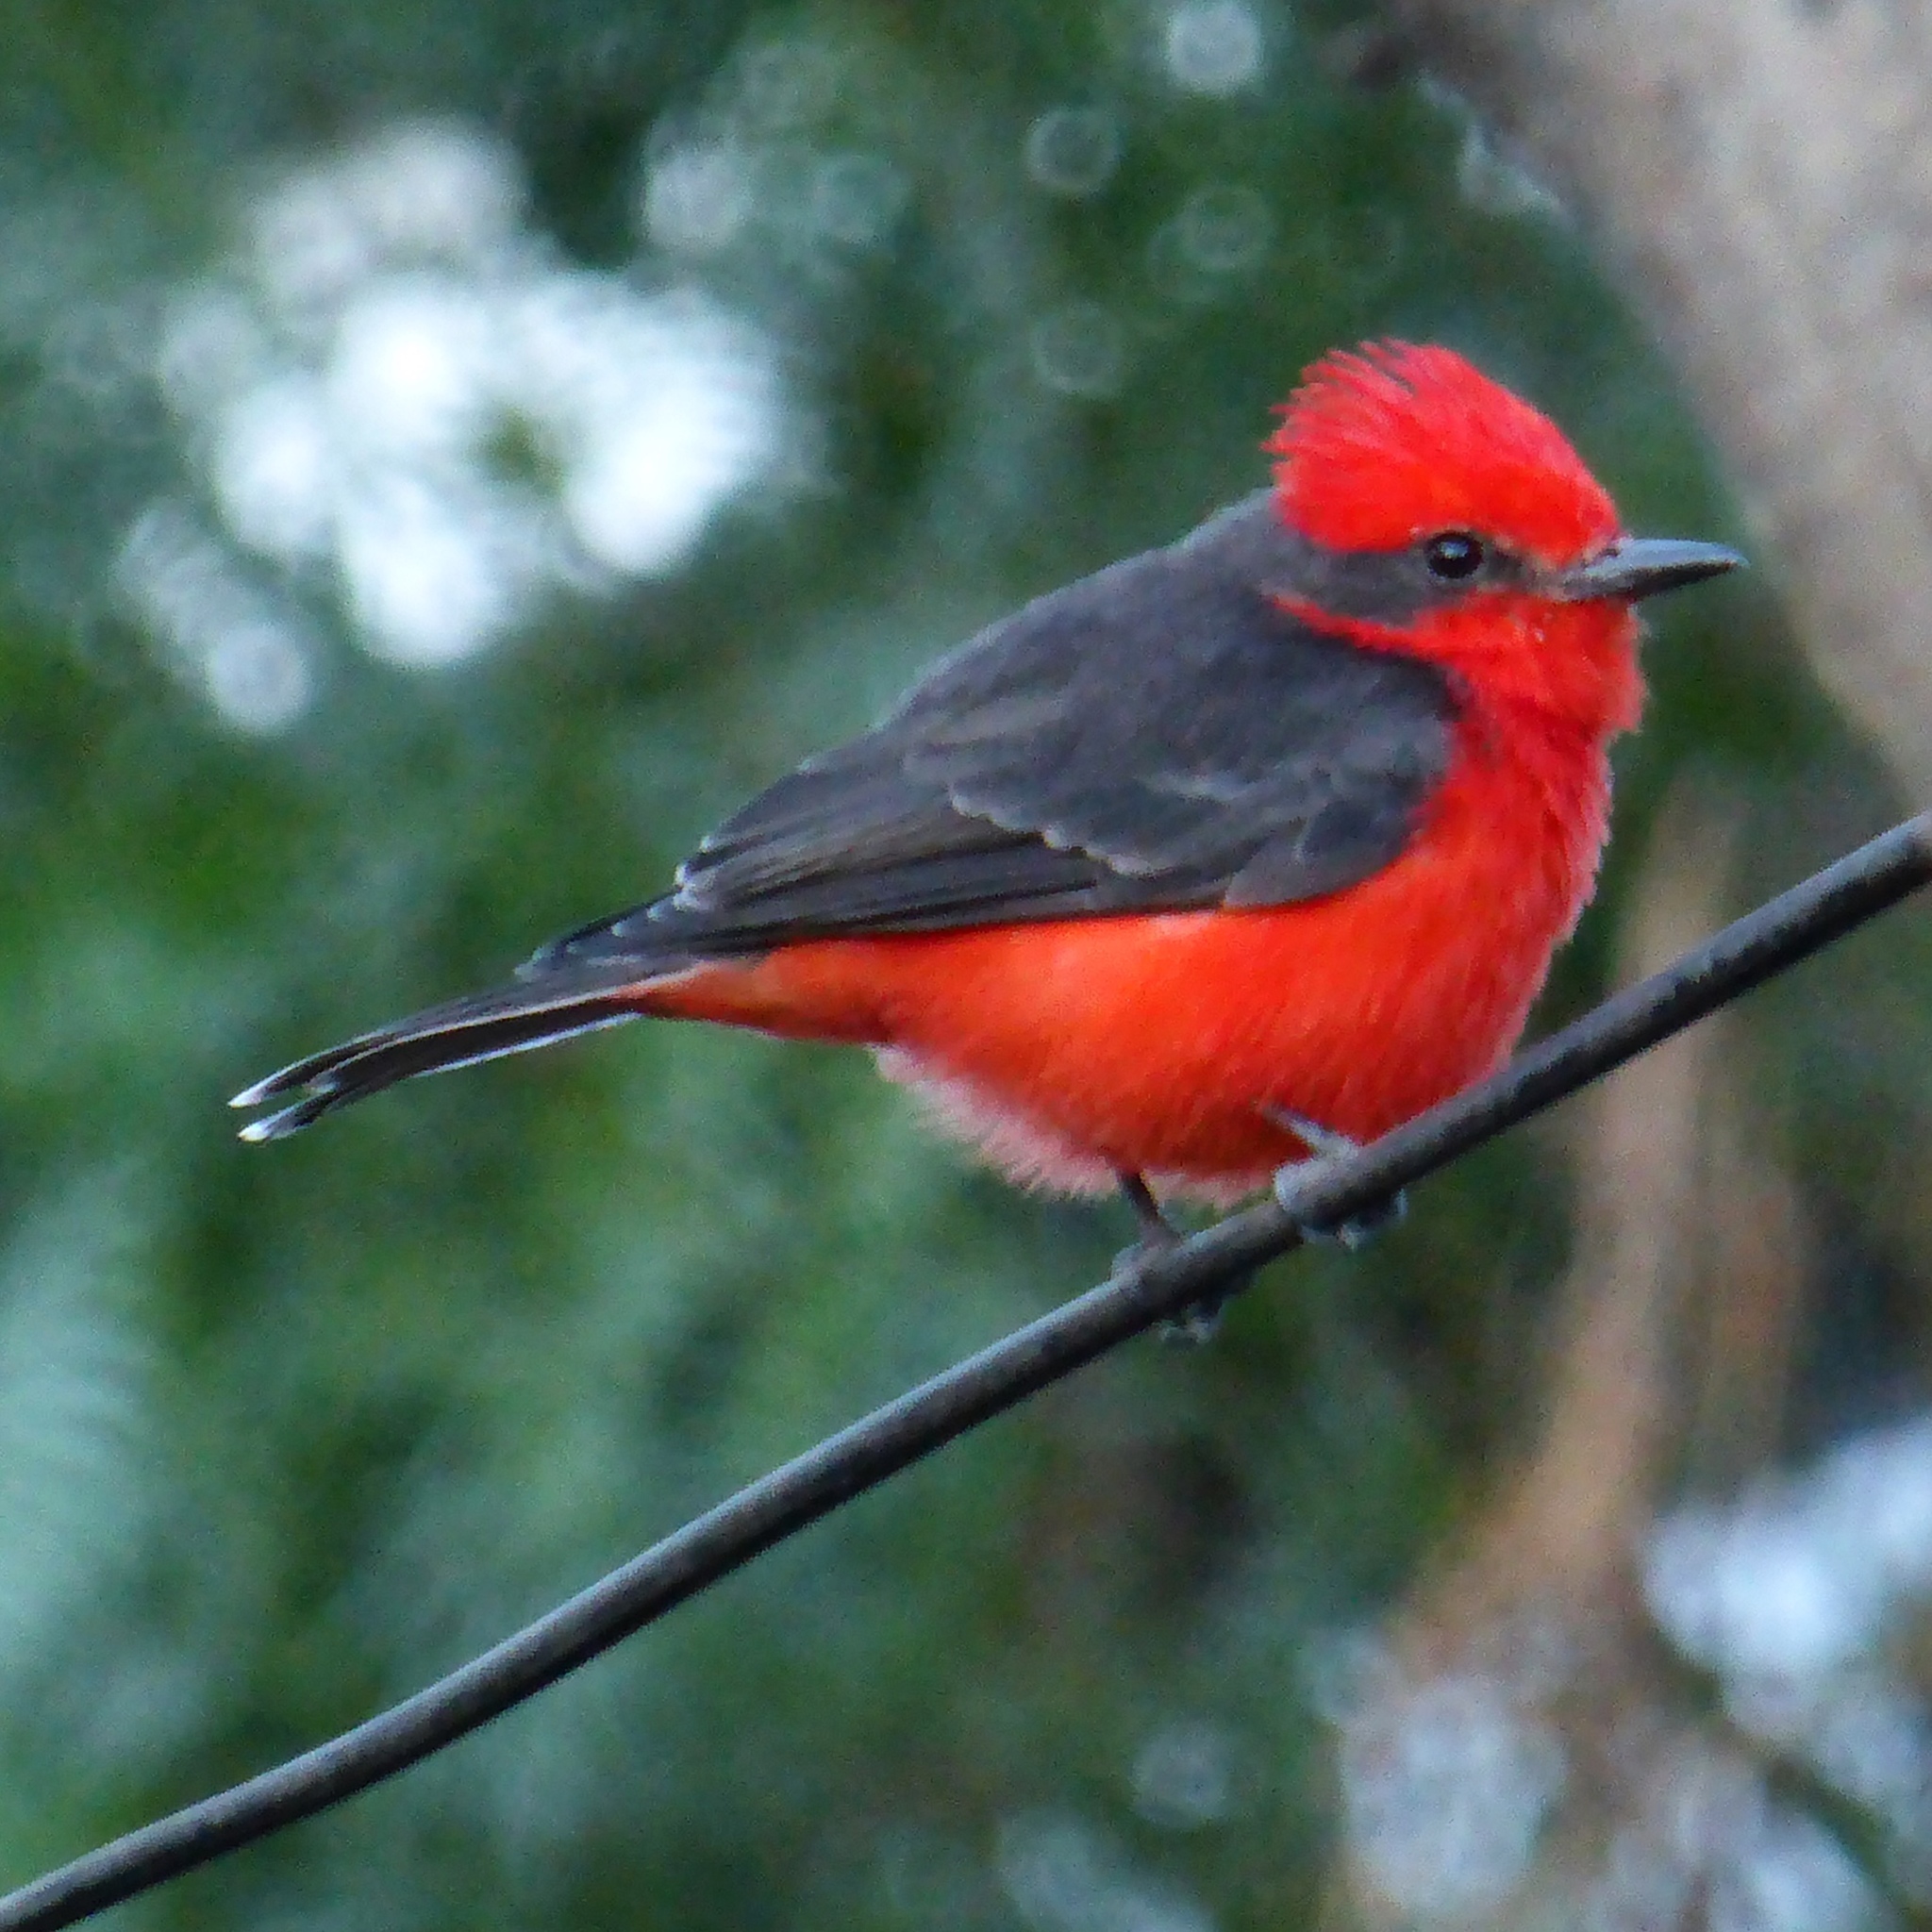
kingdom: Animalia
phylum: Chordata
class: Aves
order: Passeriformes
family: Tyrannidae
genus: Pyrocephalus
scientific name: Pyrocephalus rubinus
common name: Vermilion flycatcher
